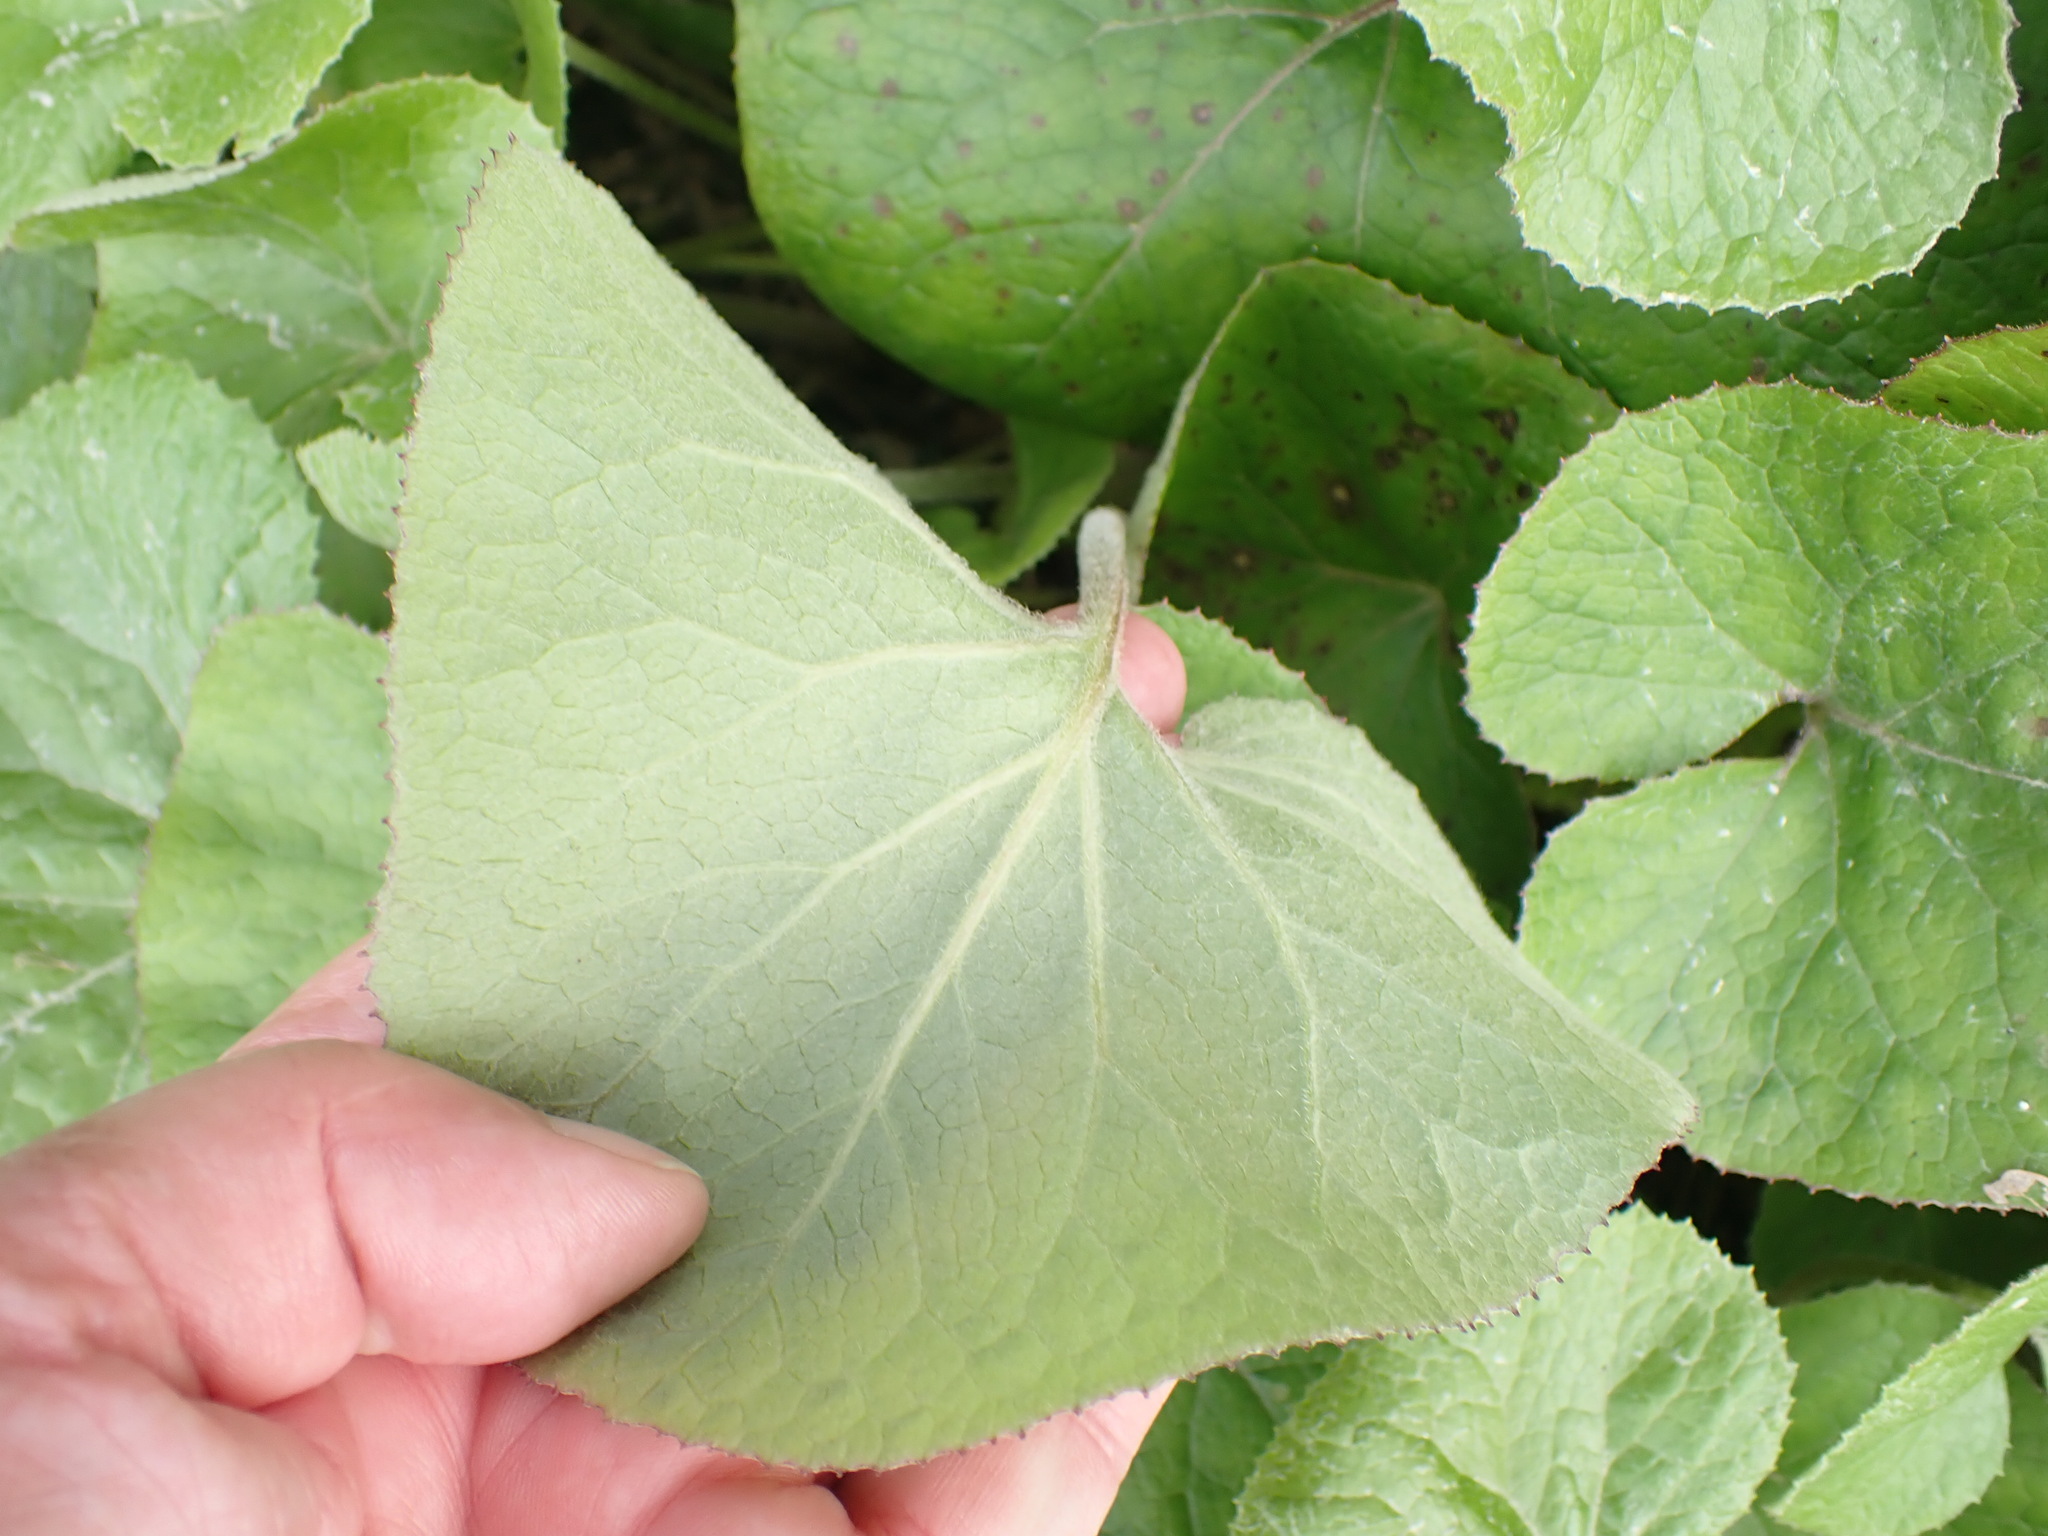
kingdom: Plantae
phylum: Tracheophyta
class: Magnoliopsida
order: Asterales
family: Asteraceae
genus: Petasites
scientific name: Petasites pyrenaicus
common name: Winter heliotrope
